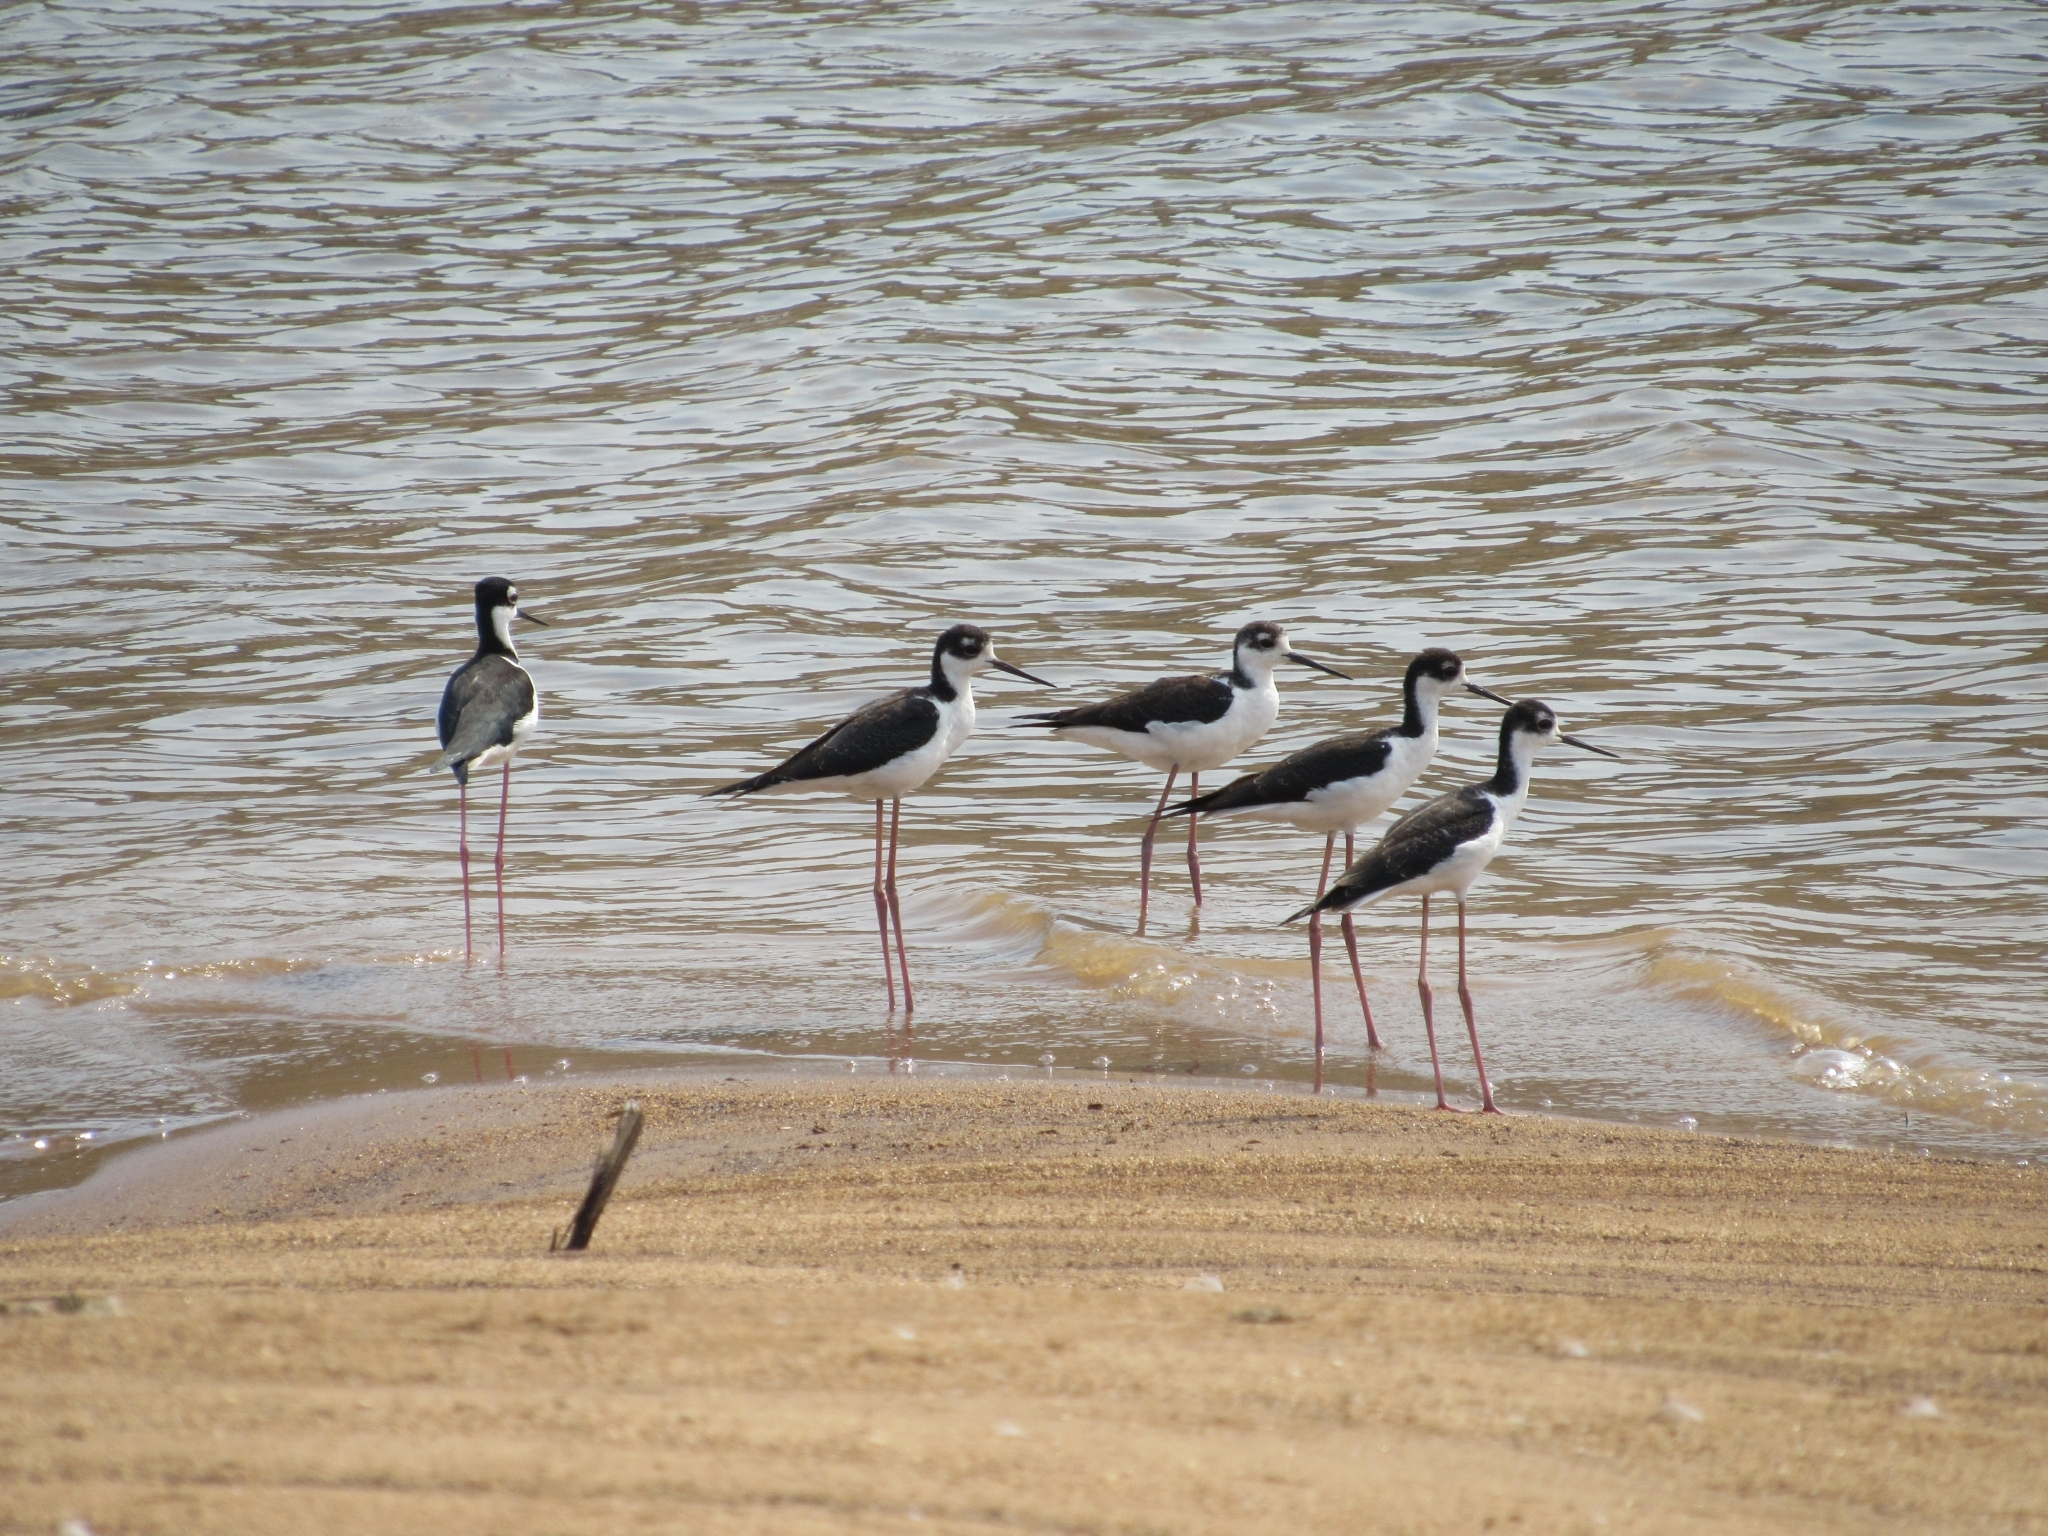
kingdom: Animalia
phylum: Chordata
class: Aves
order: Charadriiformes
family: Recurvirostridae
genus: Himantopus
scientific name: Himantopus mexicanus
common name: Black-necked stilt
